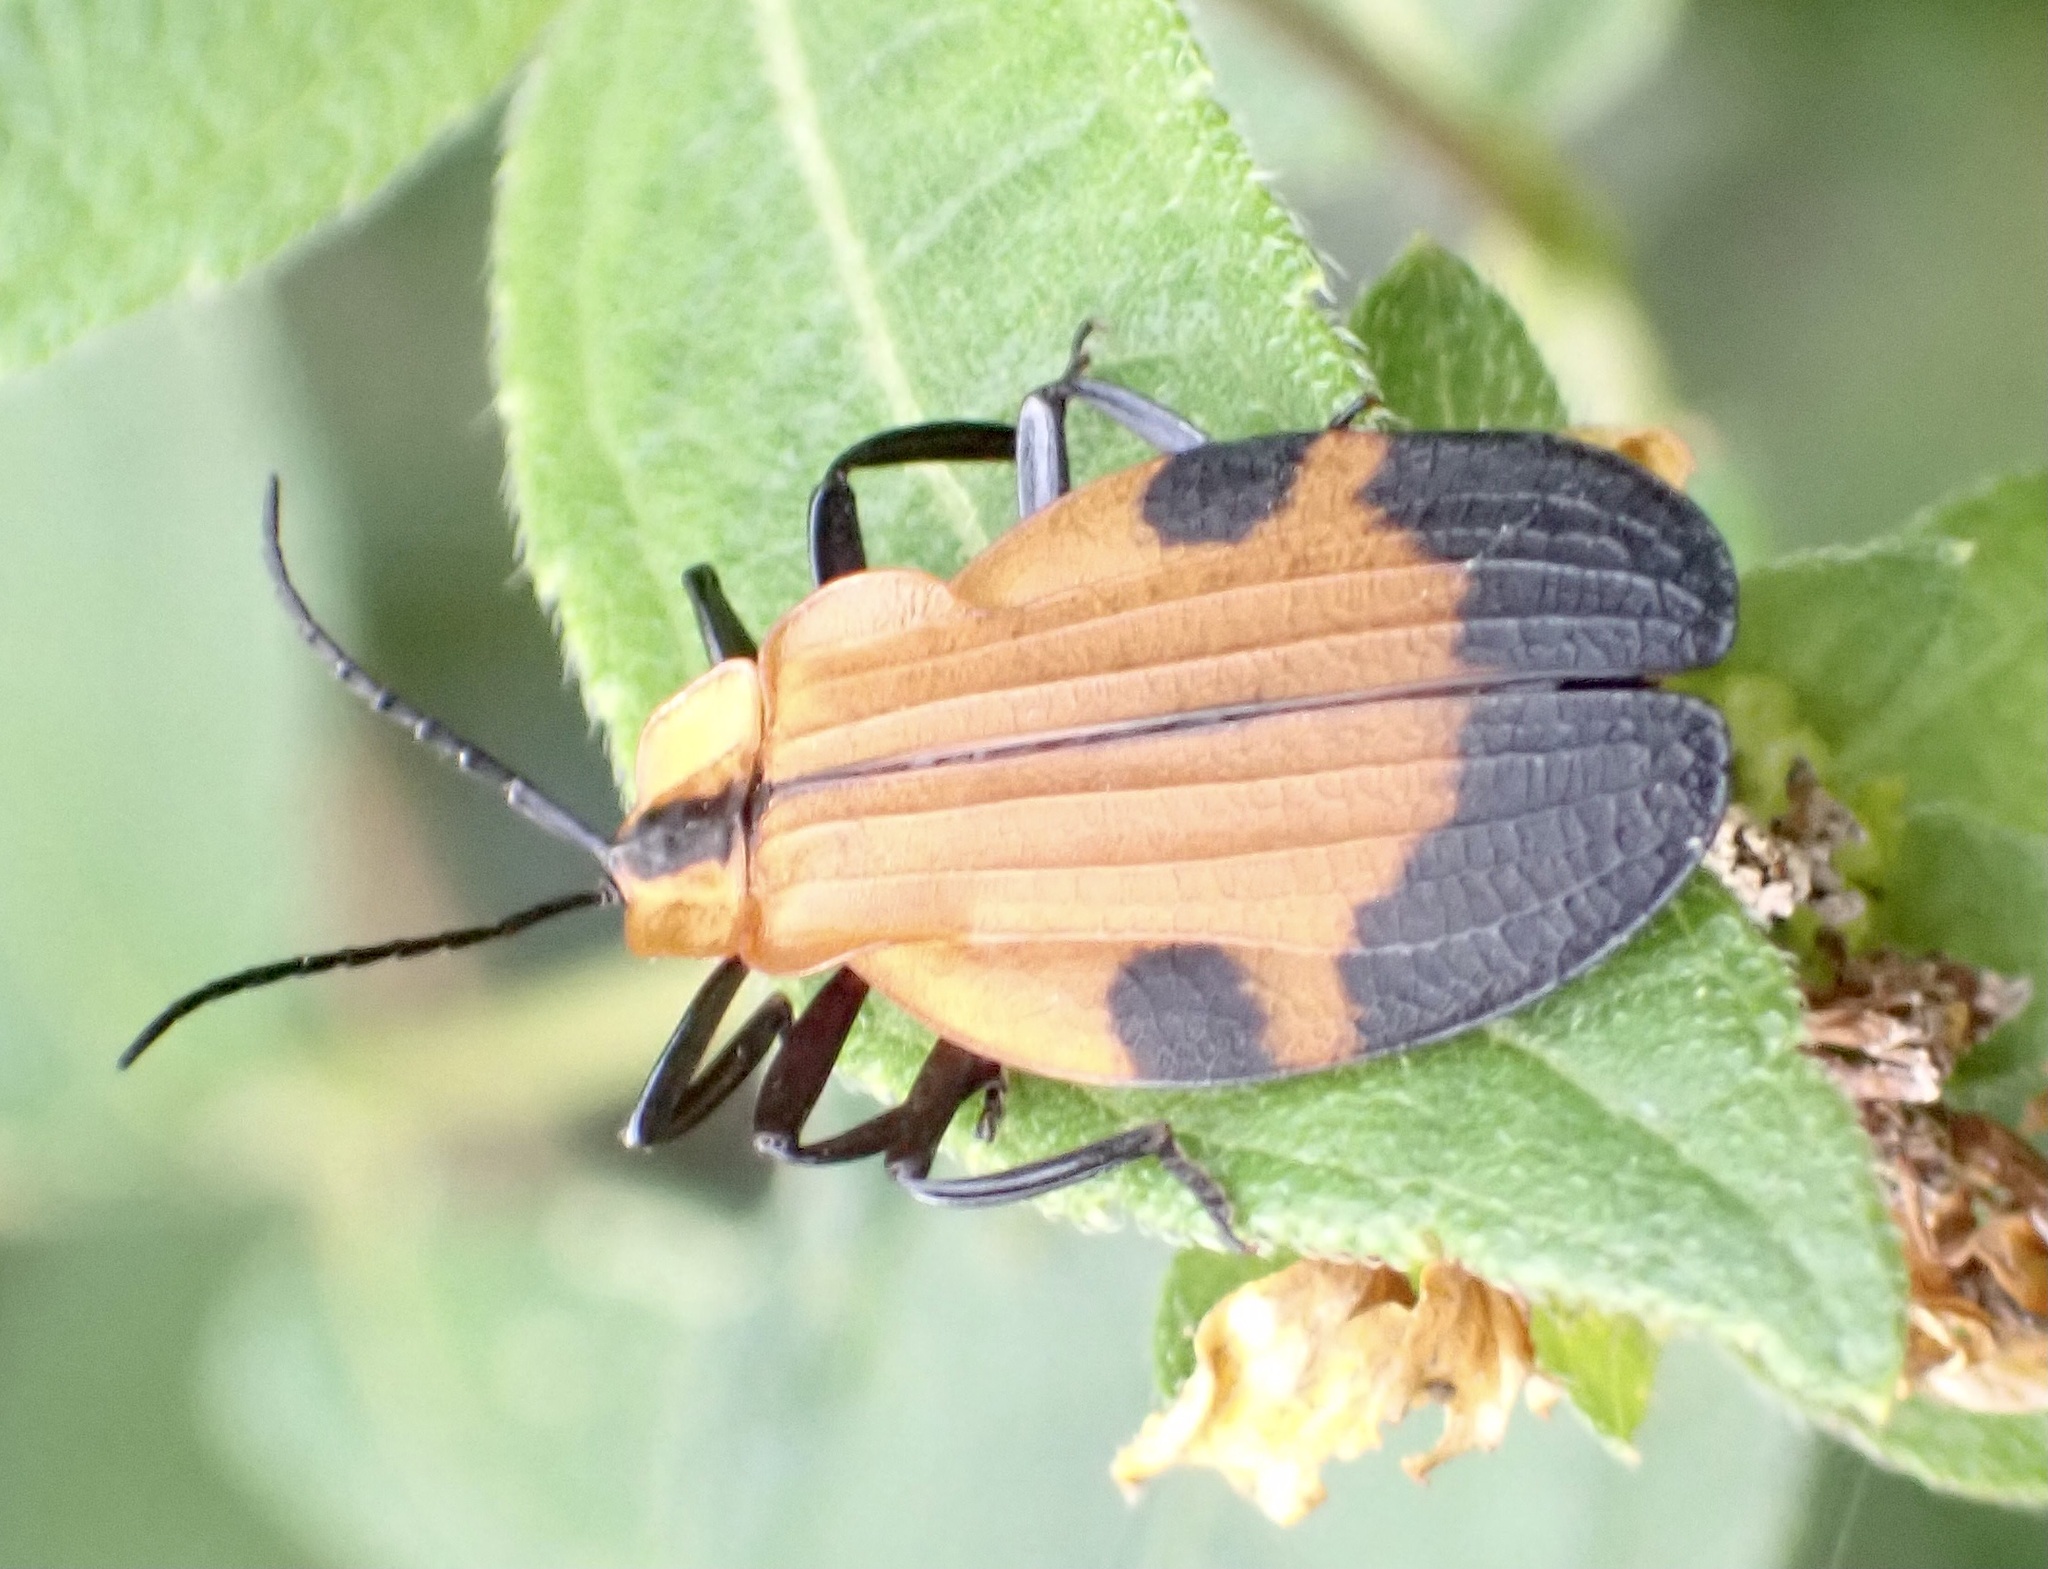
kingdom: Animalia
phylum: Arthropoda
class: Insecta
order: Coleoptera
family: Lycidae
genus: Lycus
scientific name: Lycus
